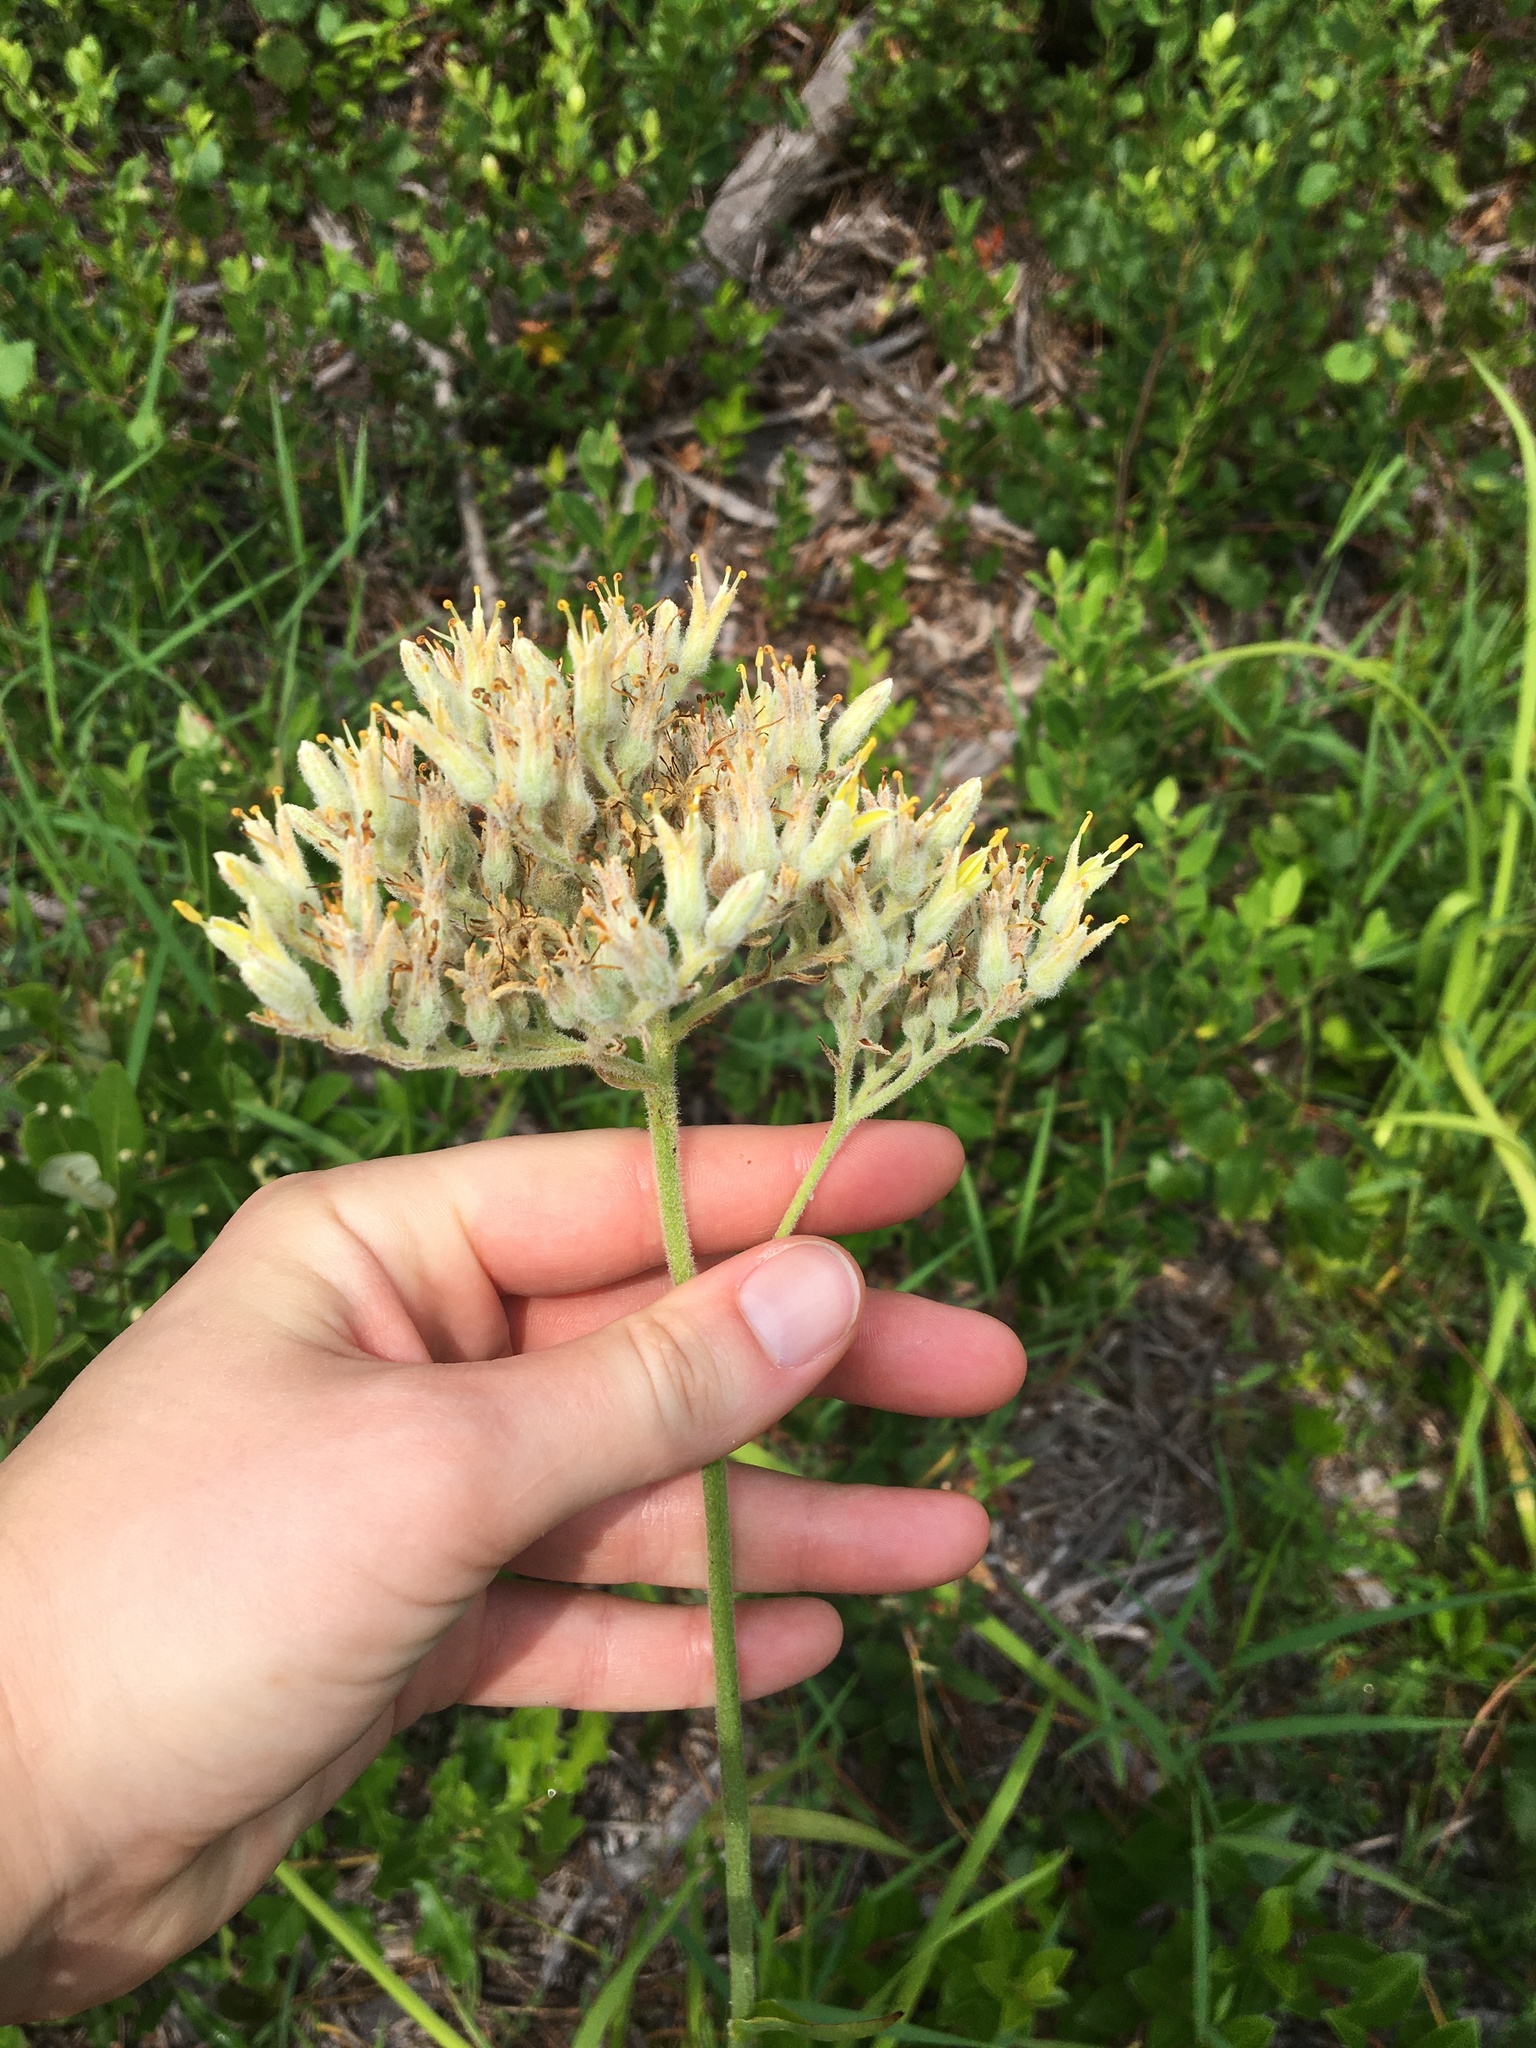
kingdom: Plantae
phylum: Tracheophyta
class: Liliopsida
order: Commelinales
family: Haemodoraceae
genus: Lachnanthes
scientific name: Lachnanthes caroliana
